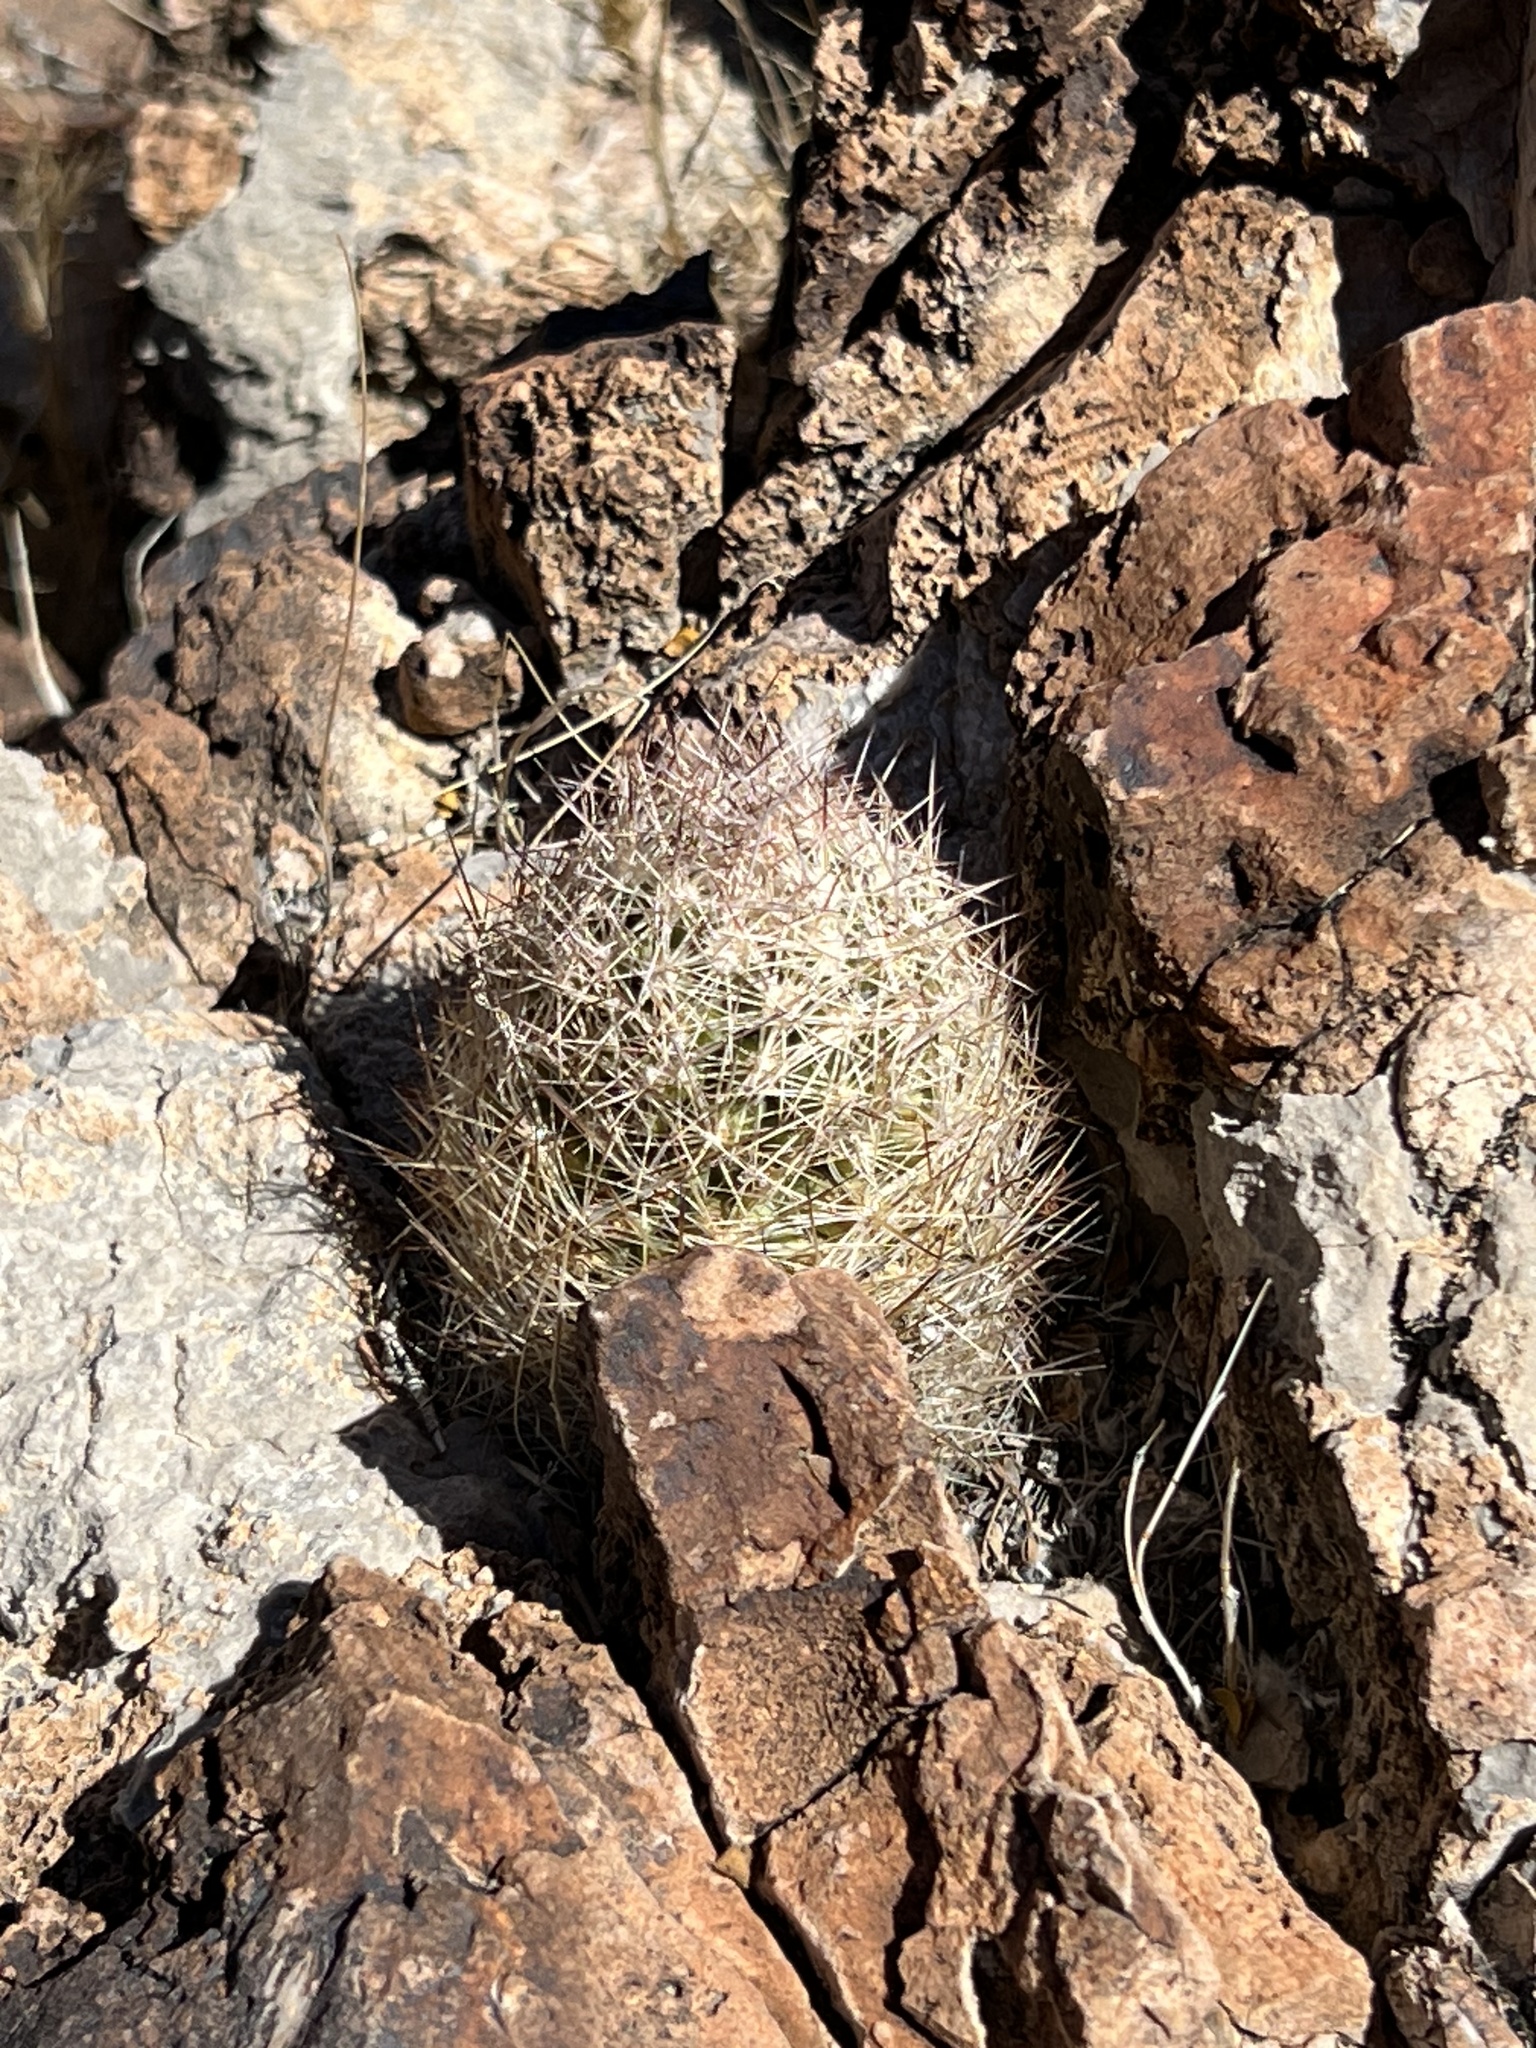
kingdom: Plantae
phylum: Tracheophyta
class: Magnoliopsida
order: Caryophyllales
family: Cactaceae
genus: Pelecyphora
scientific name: Pelecyphora dasyacantha
